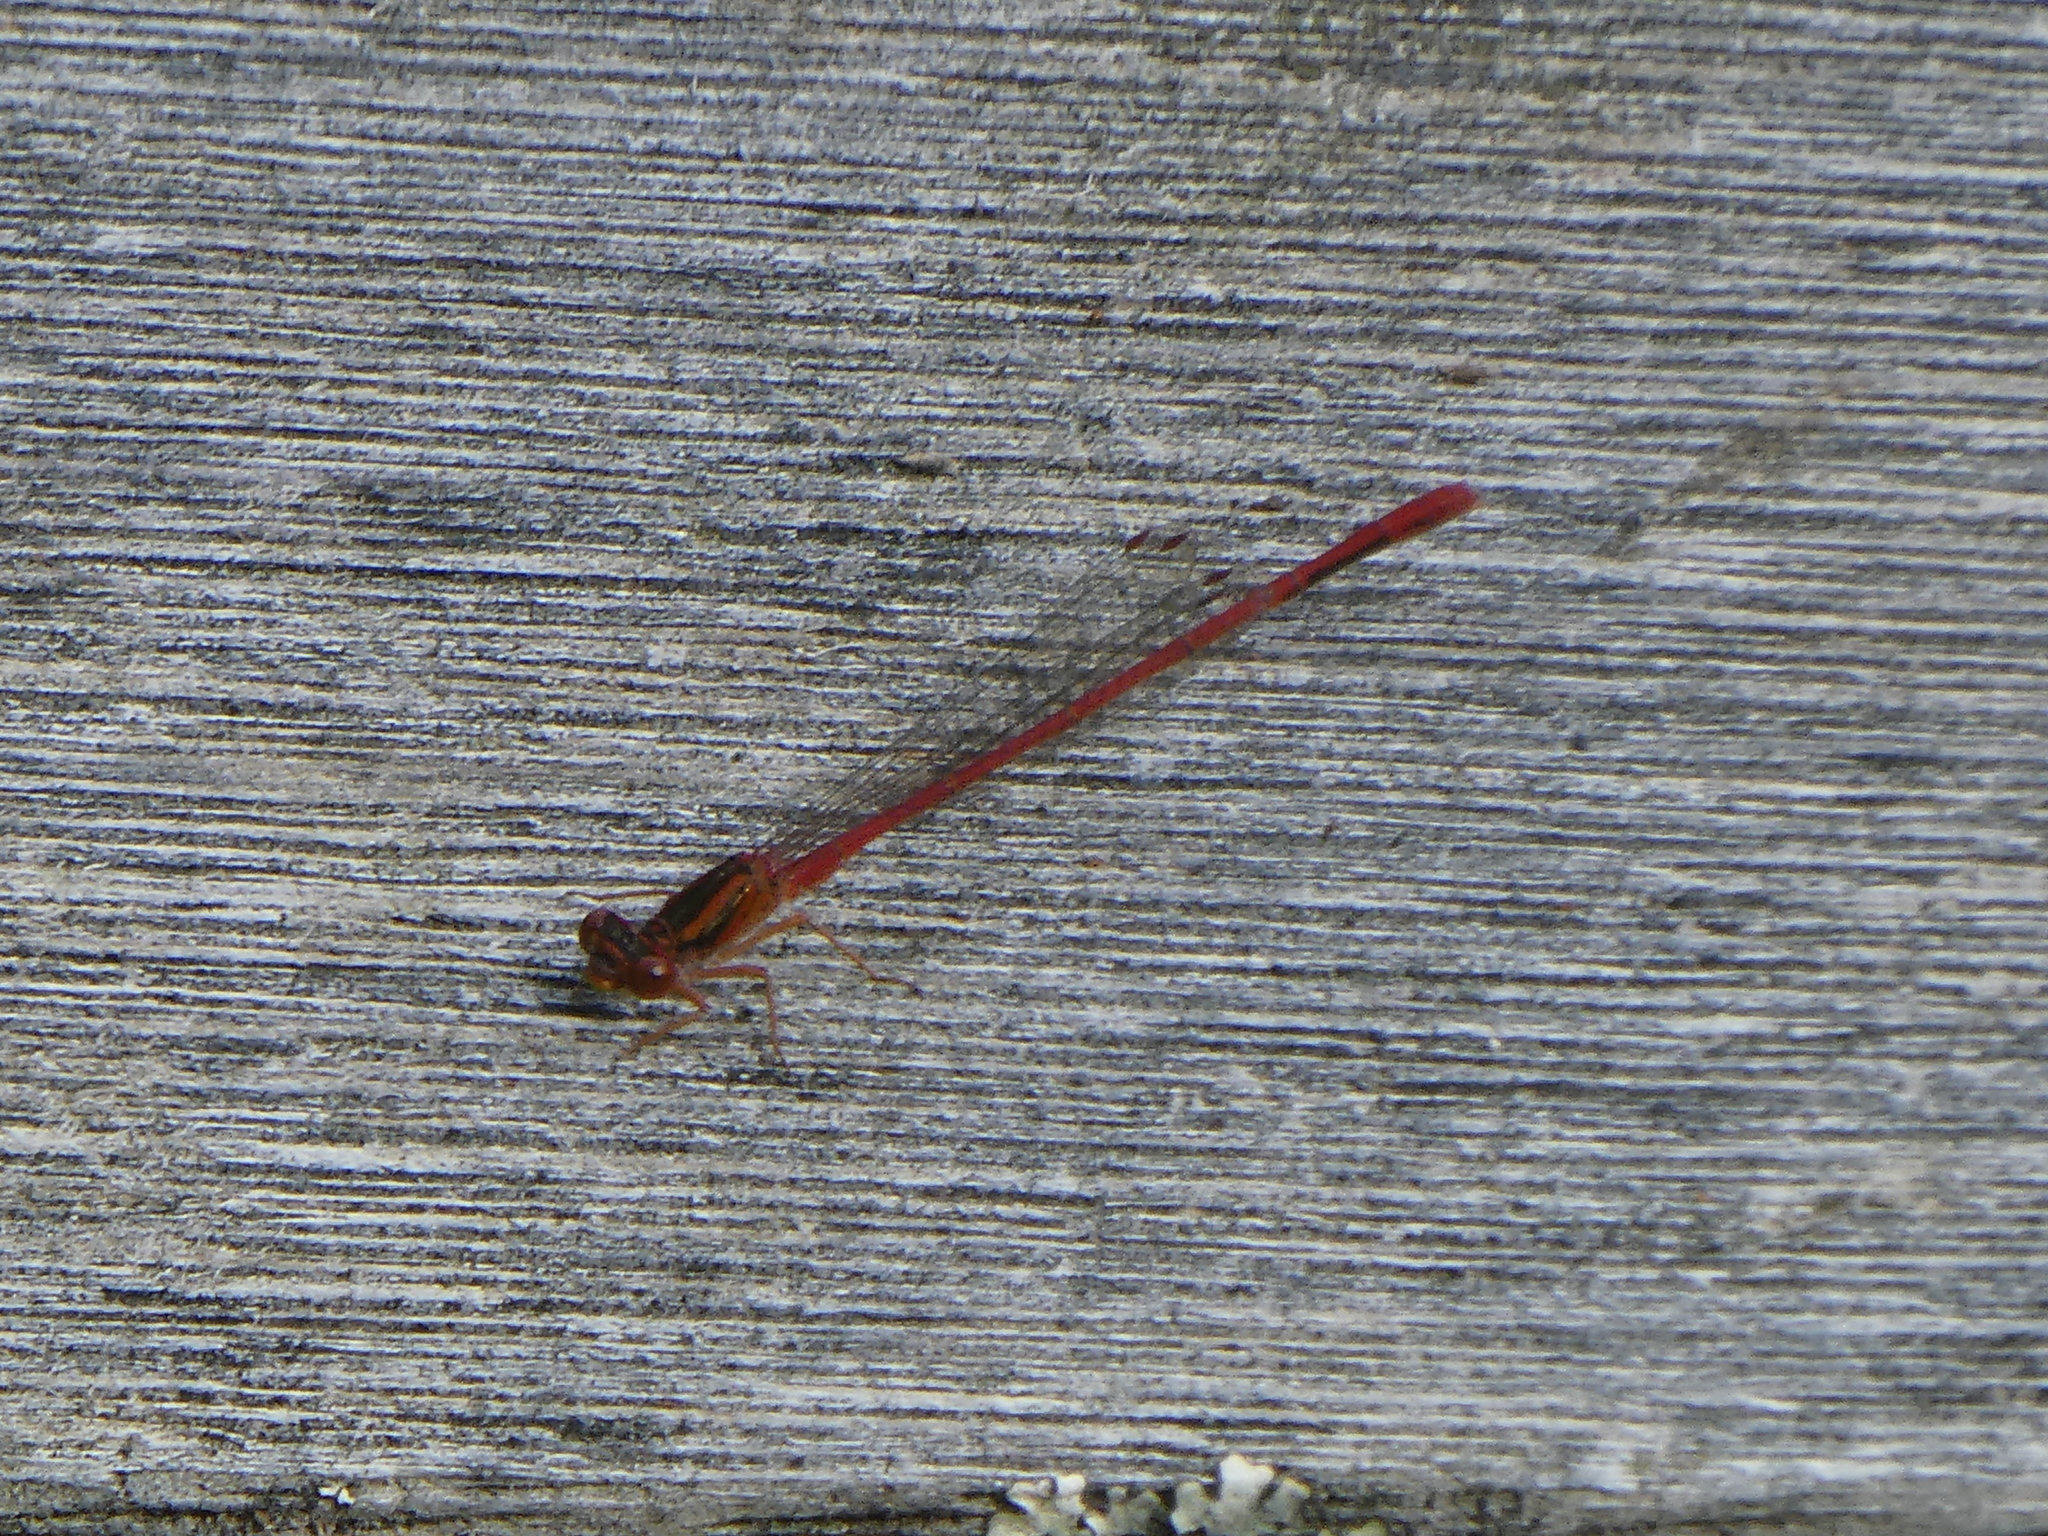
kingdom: Animalia
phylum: Arthropoda
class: Insecta
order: Odonata
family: Coenagrionidae
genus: Xanthocnemis
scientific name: Xanthocnemis zealandica
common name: Common redcoat damselfly
